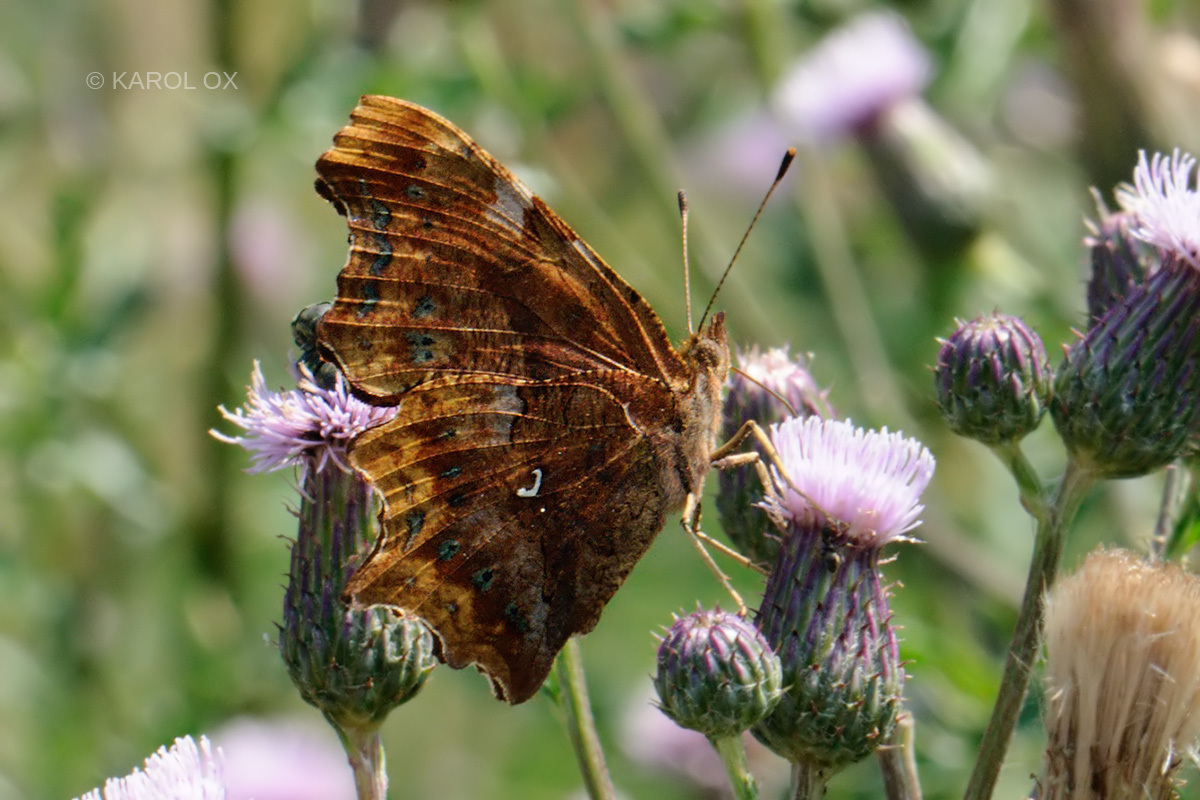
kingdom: Animalia
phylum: Arthropoda
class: Insecta
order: Lepidoptera
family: Nymphalidae
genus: Polygonia
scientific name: Polygonia c-album
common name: Comma
